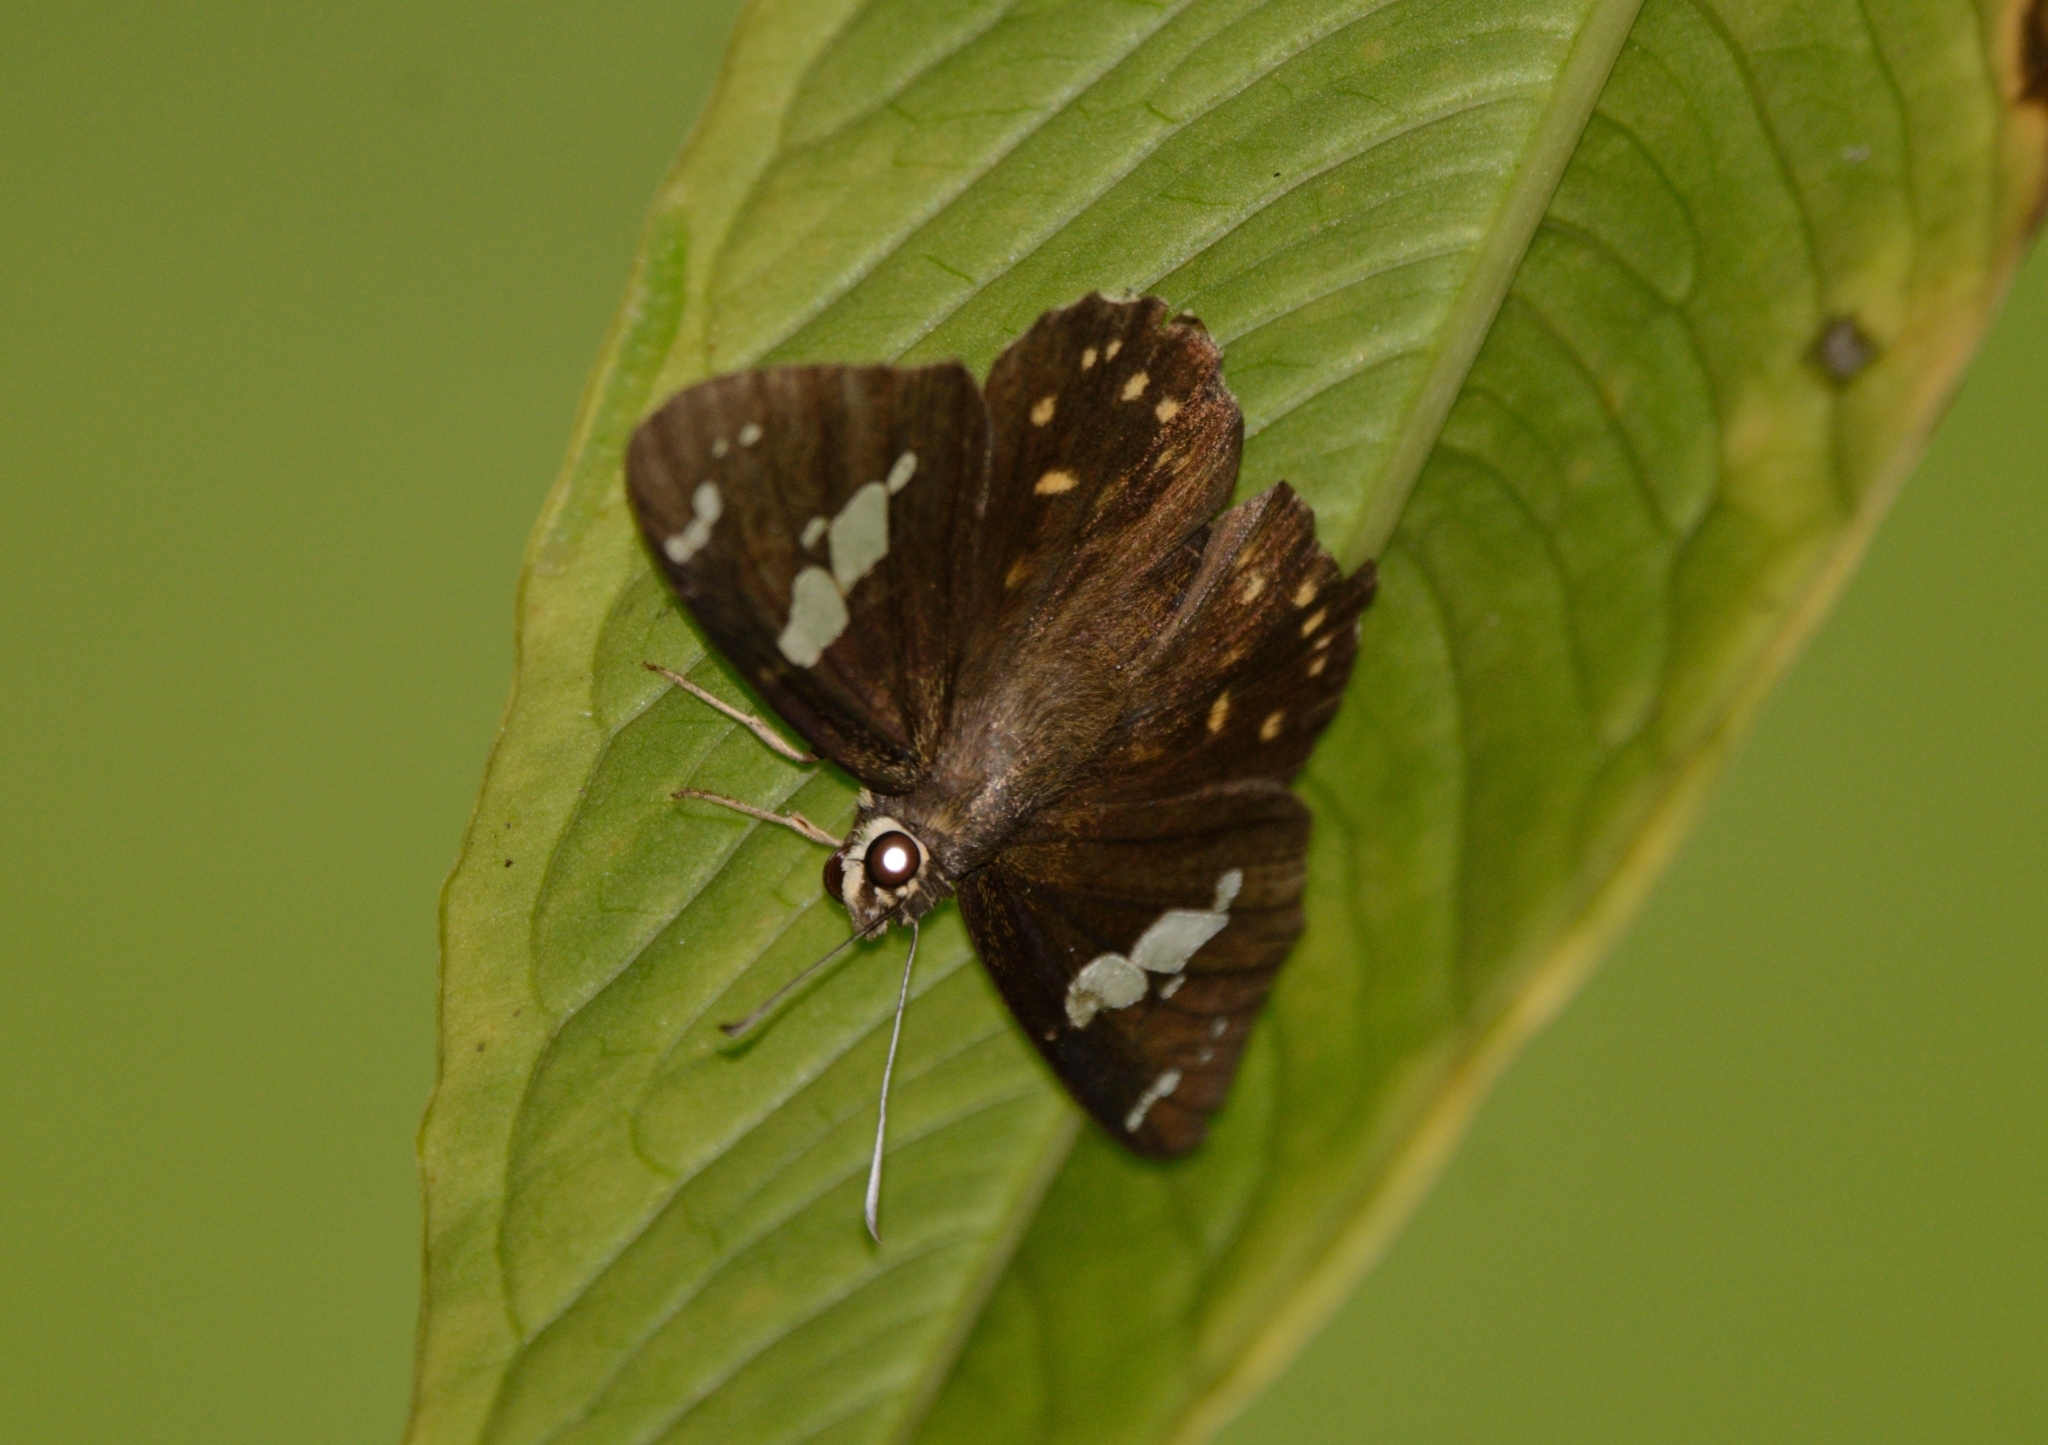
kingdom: Animalia
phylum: Arthropoda
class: Insecta
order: Lepidoptera
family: Hesperiidae
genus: Celaenorrhinus
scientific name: Celaenorrhinus leucocera
